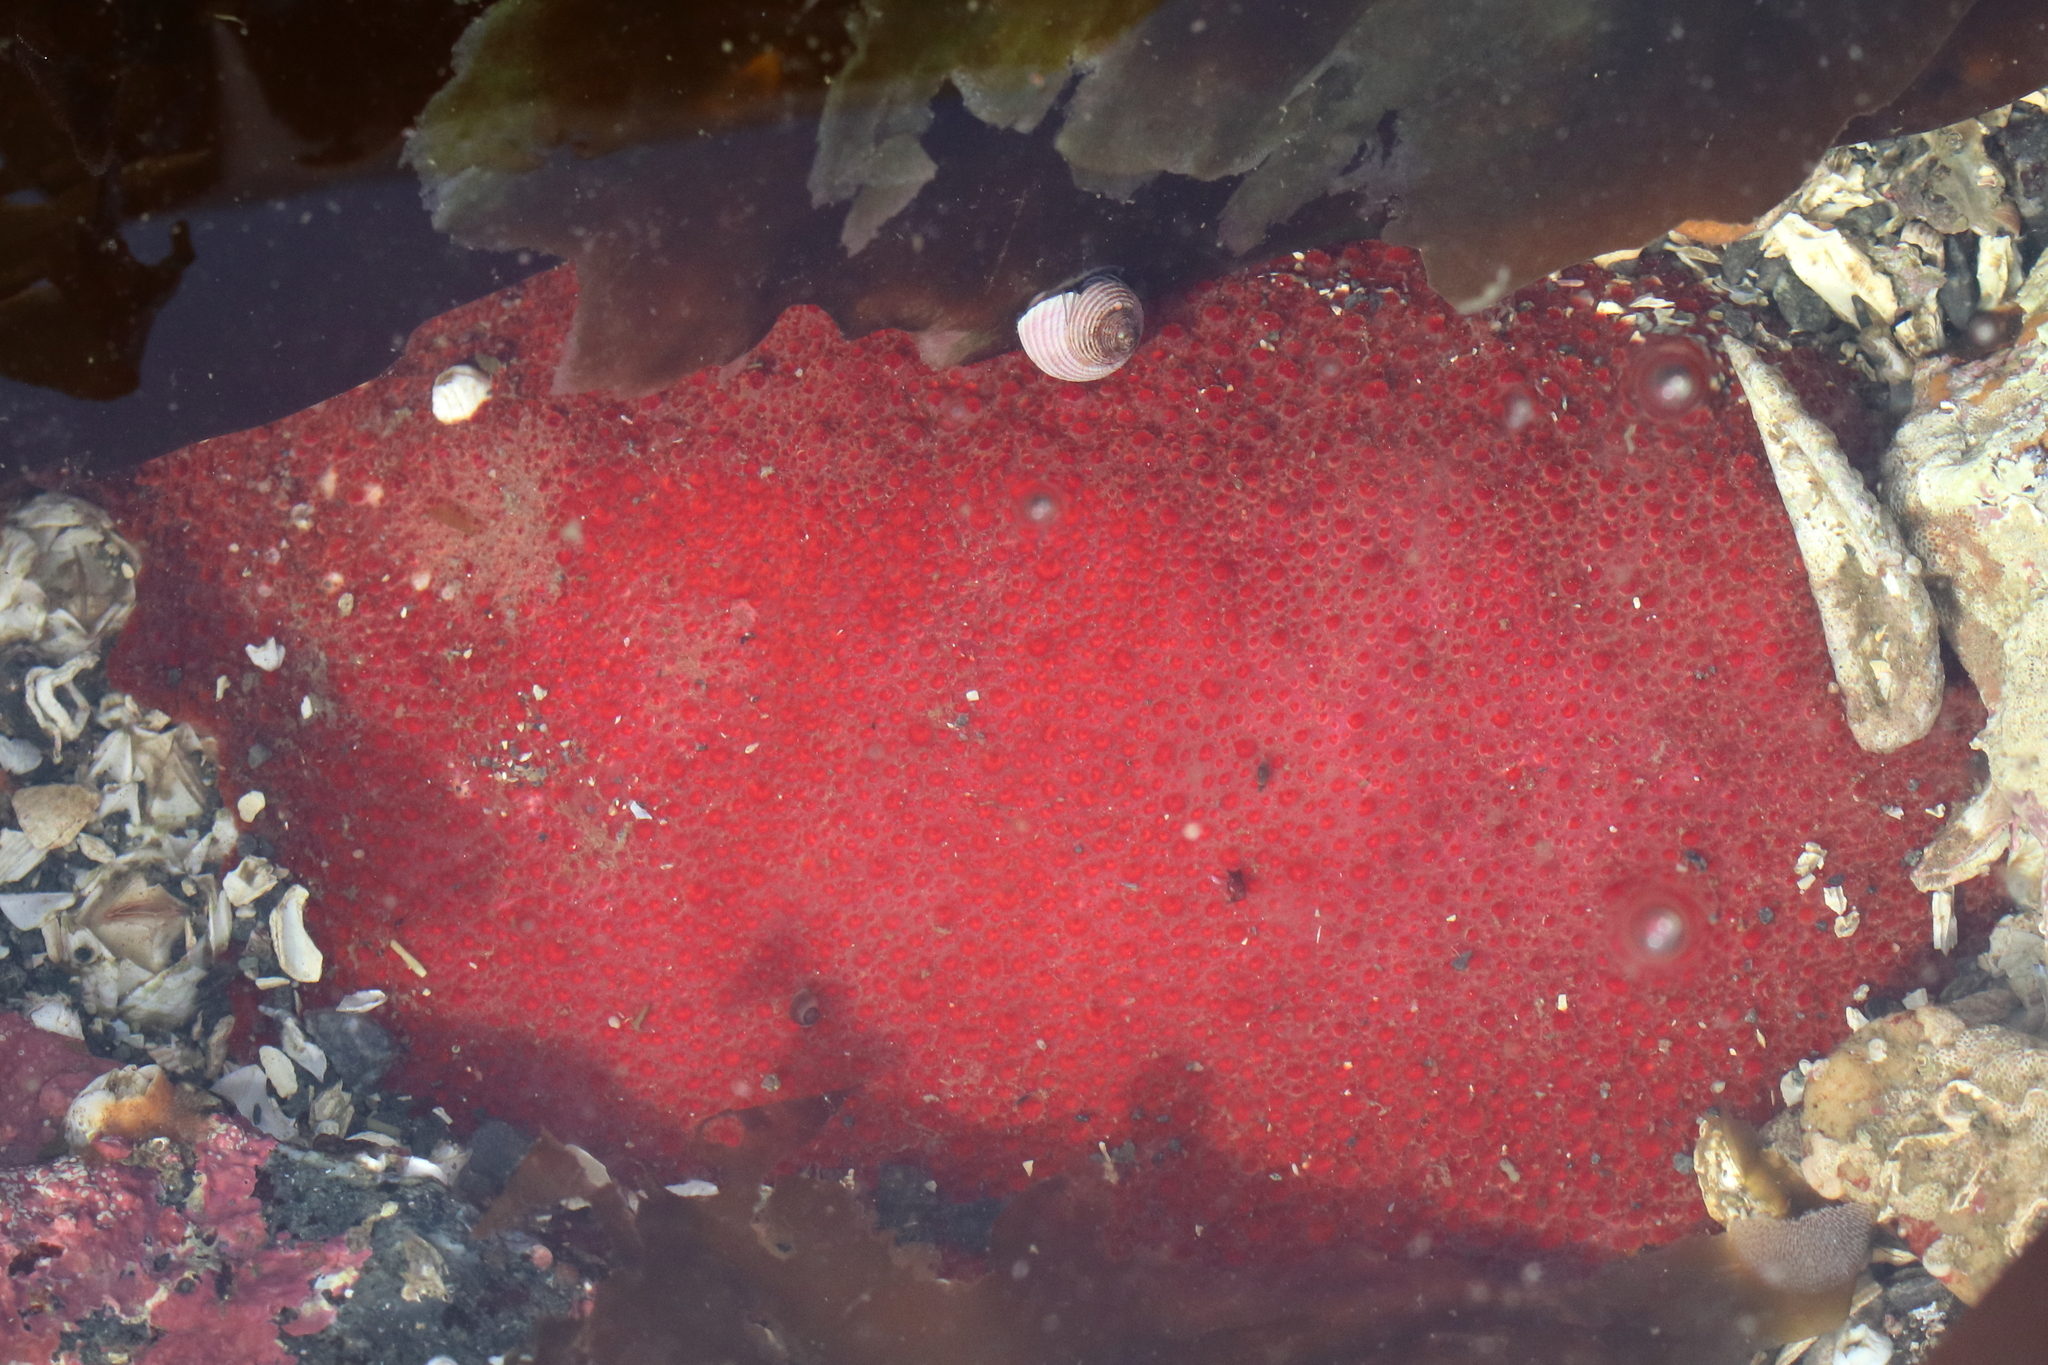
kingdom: Animalia
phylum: Mollusca
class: Polyplacophora
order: Chitonida
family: Acanthochitonidae
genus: Cryptochiton
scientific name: Cryptochiton stelleri
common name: Giant pacific chiton
